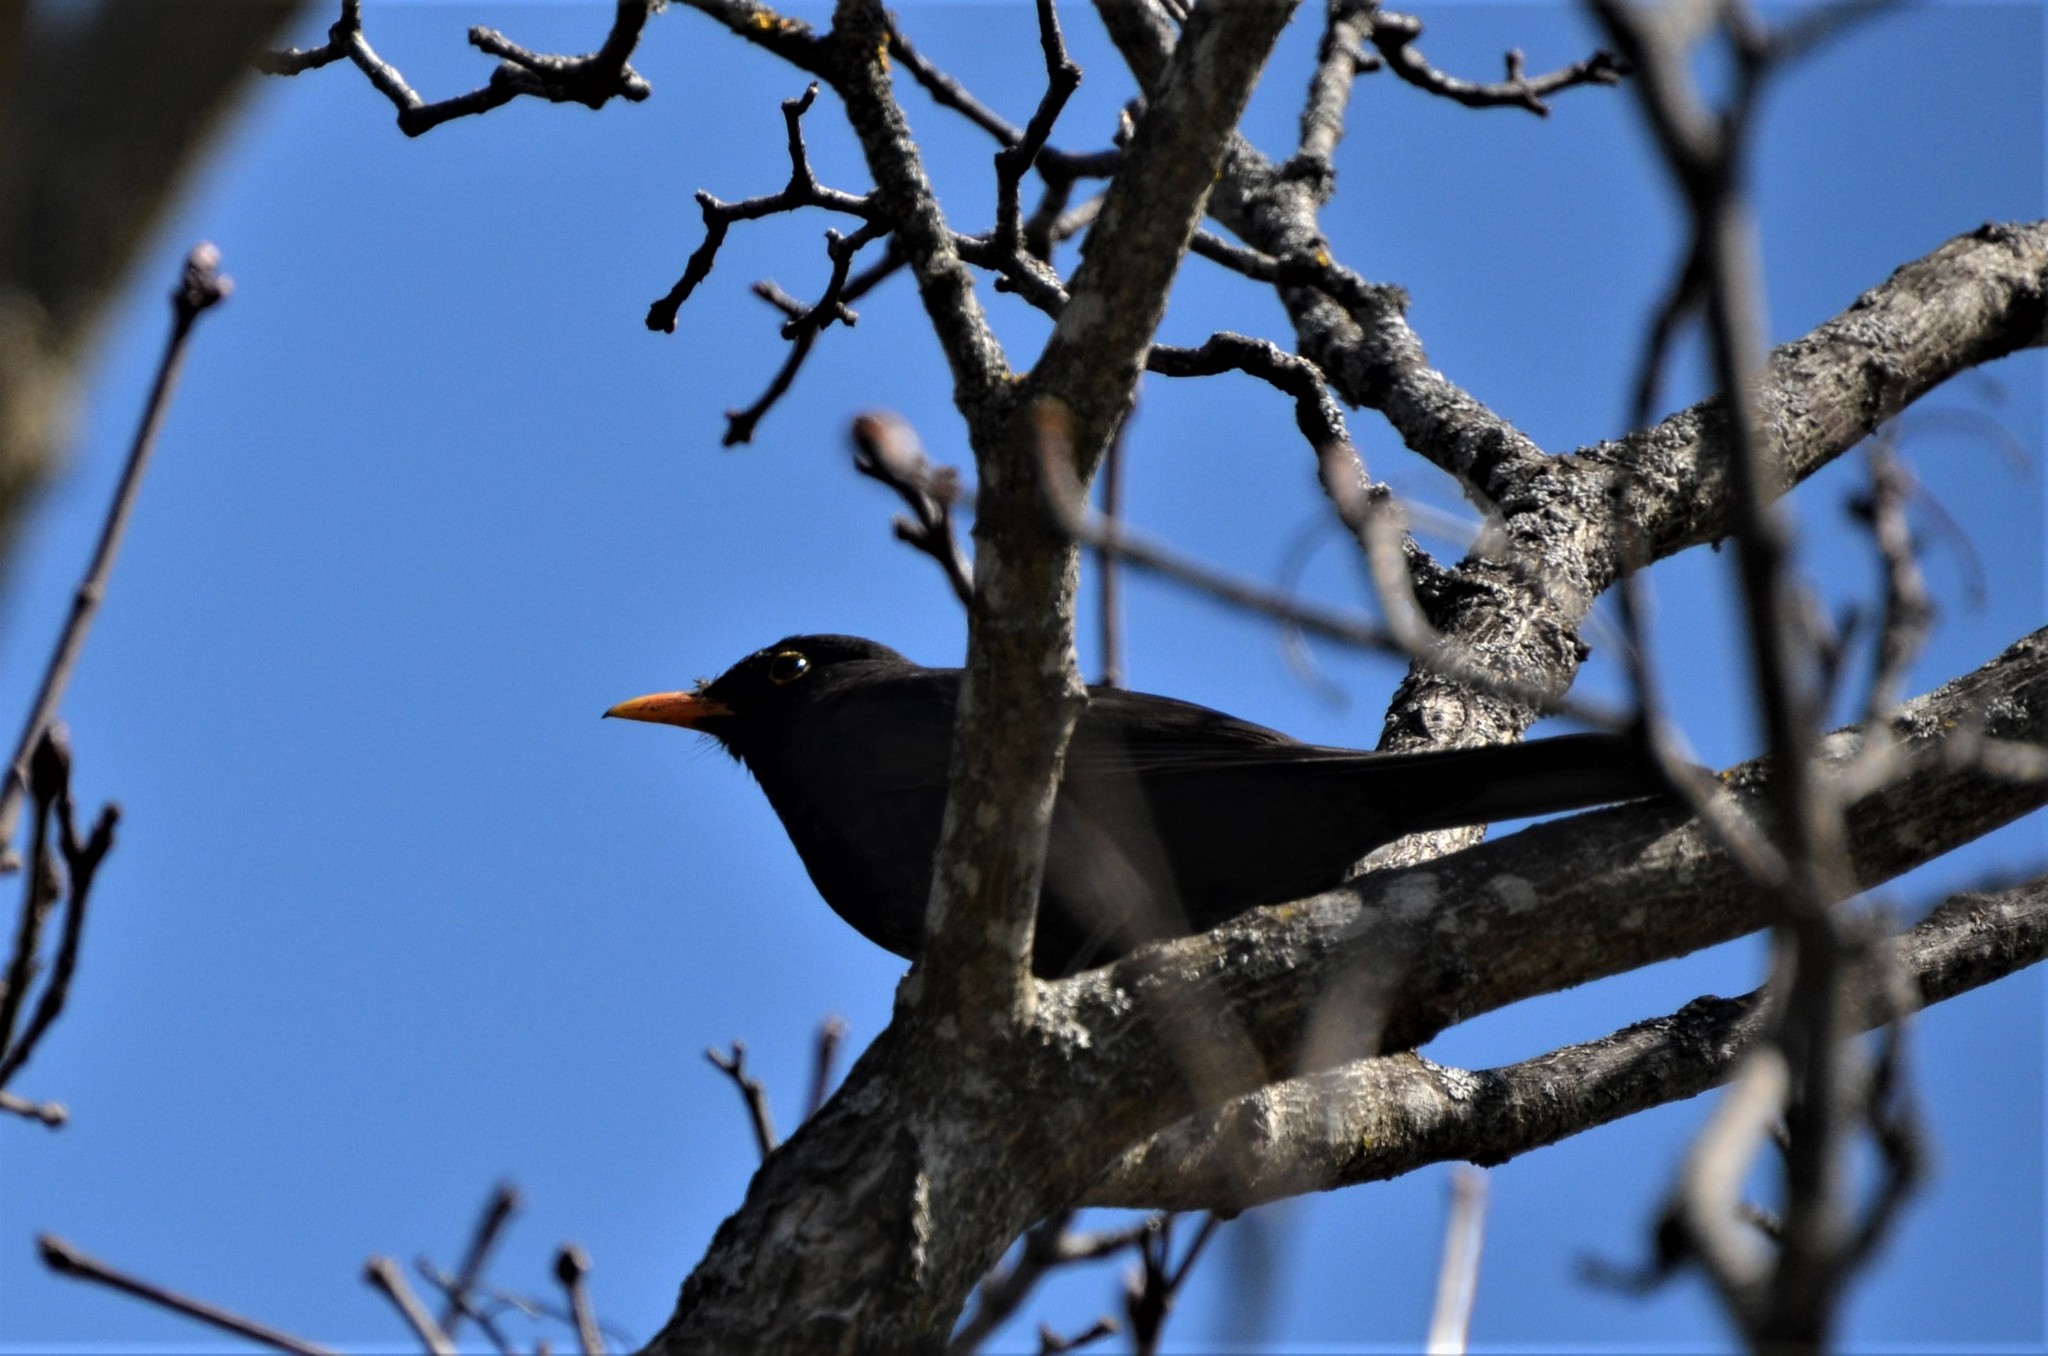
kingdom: Animalia
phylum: Chordata
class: Aves
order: Passeriformes
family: Turdidae
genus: Turdus
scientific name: Turdus merula
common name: Common blackbird
